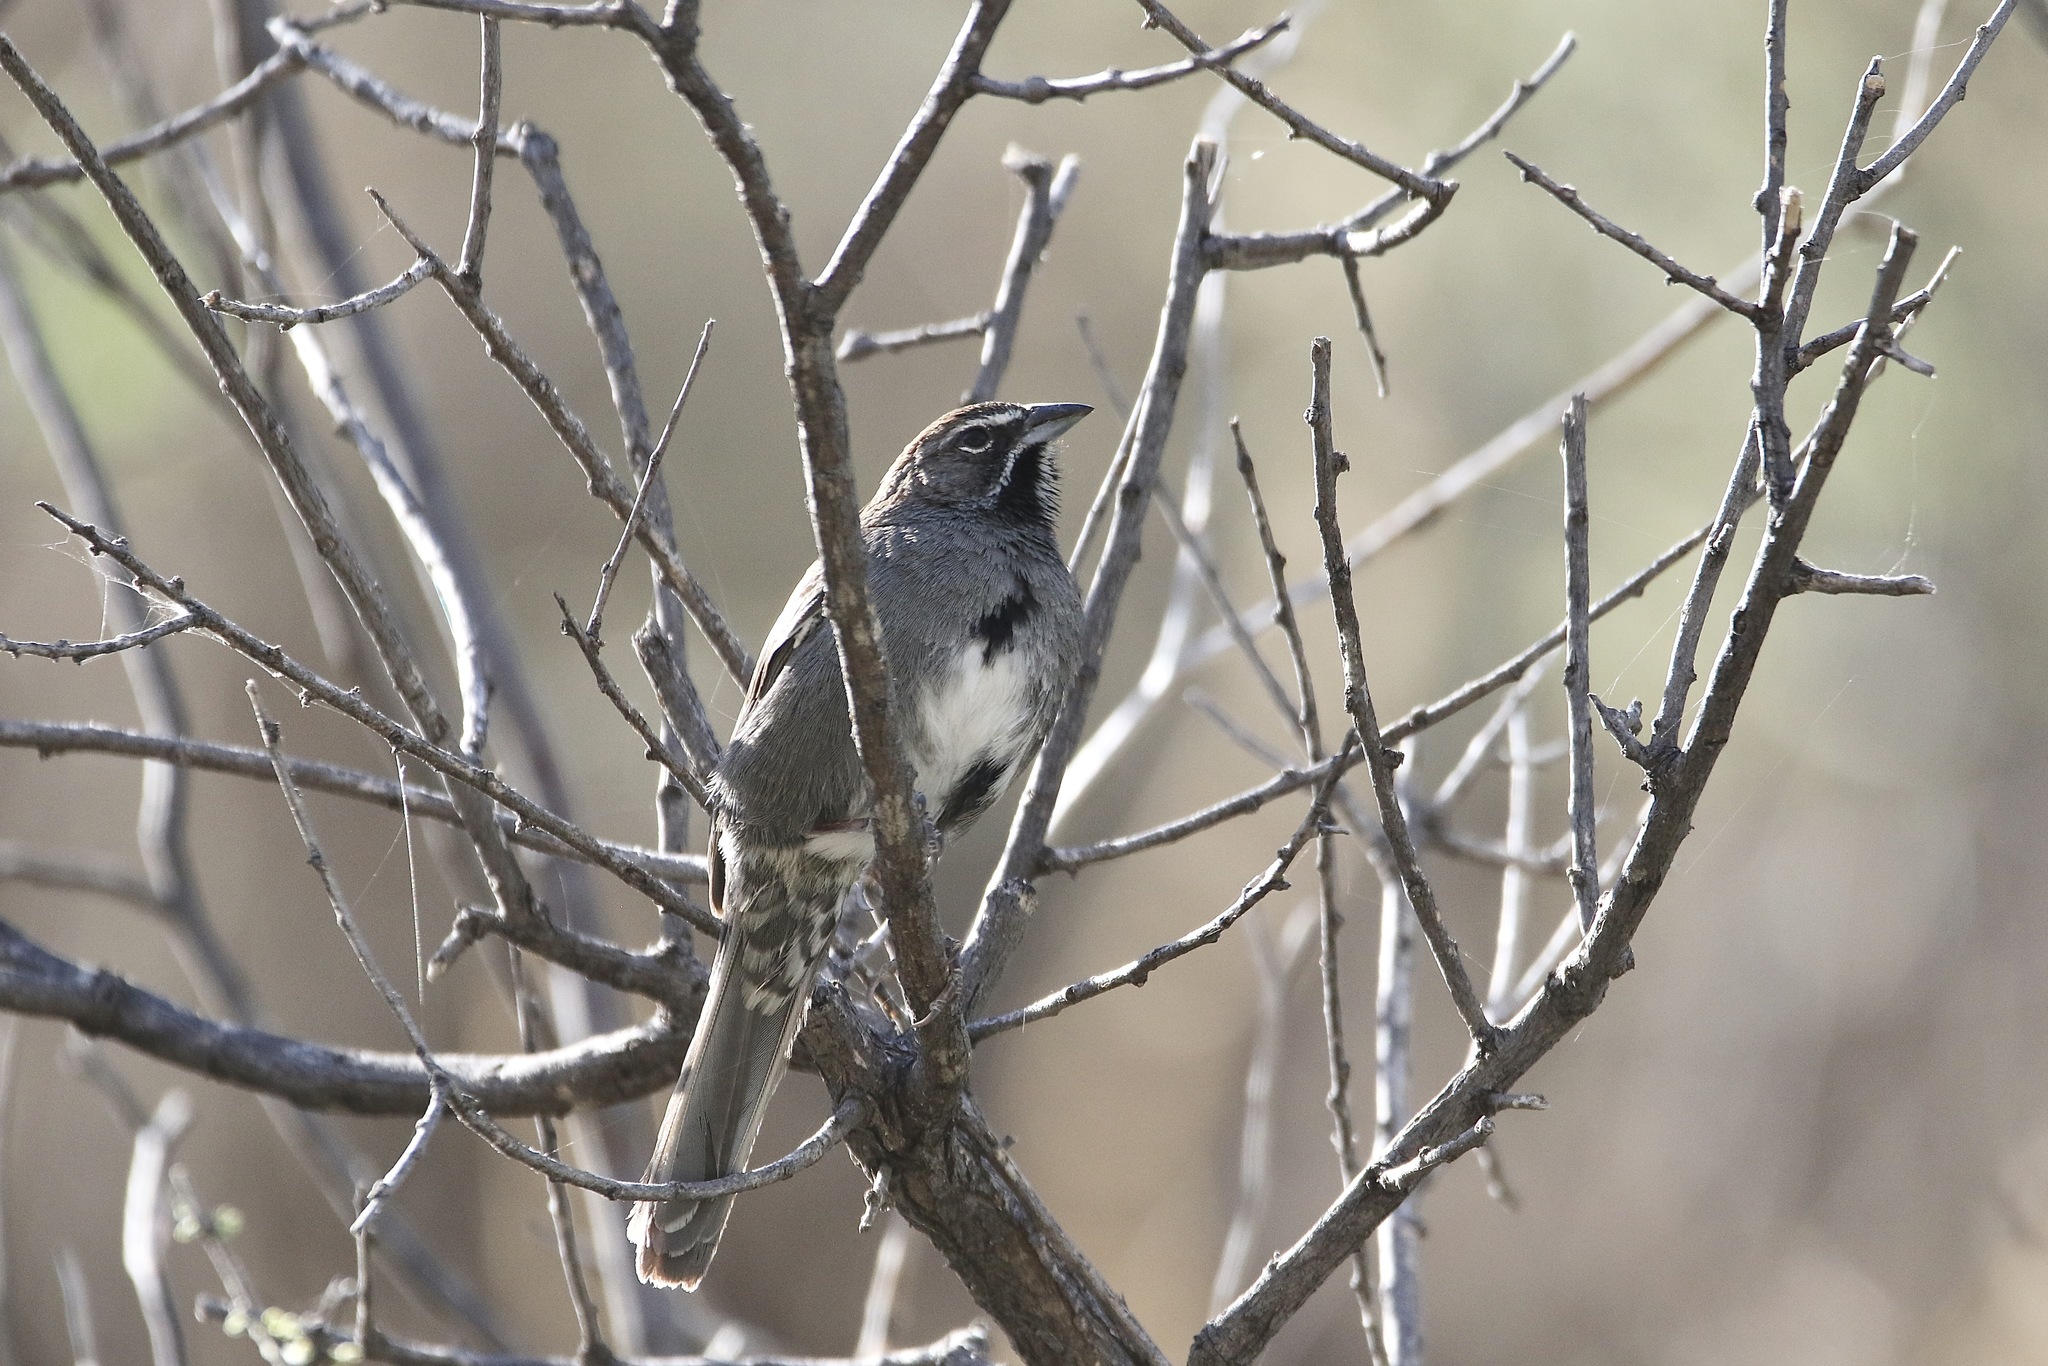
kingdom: Animalia
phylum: Chordata
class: Aves
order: Passeriformes
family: Passerellidae
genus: Amphispizopsis
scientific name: Amphispizopsis quinquestriata
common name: Five-striped sparrow
